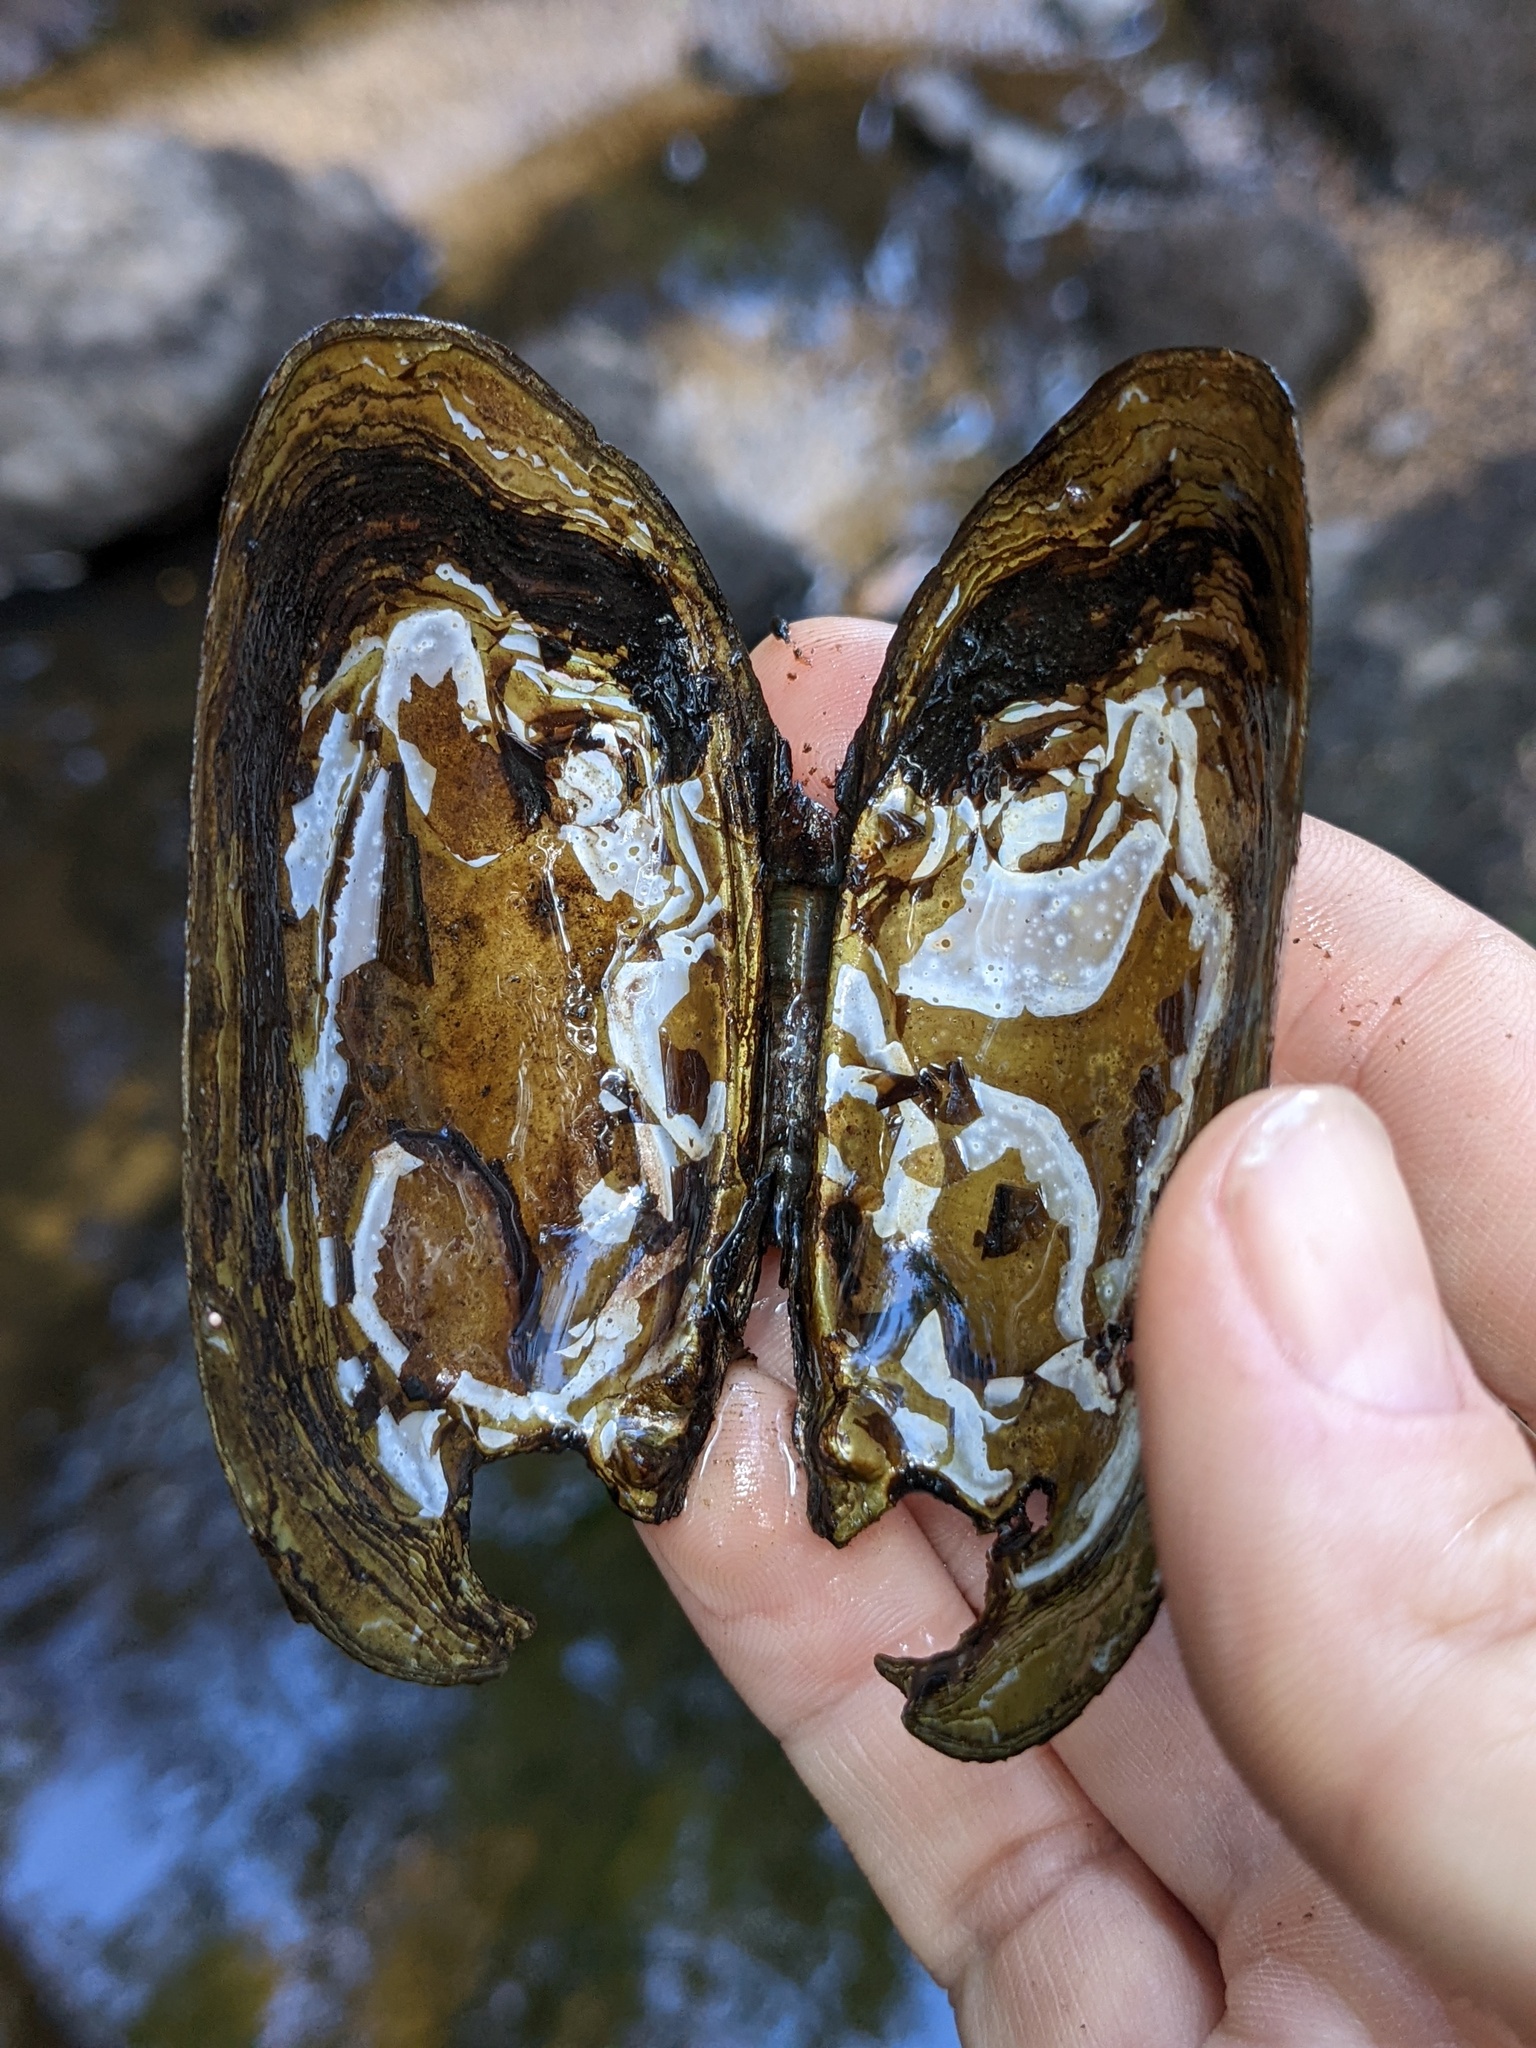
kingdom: Animalia
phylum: Mollusca
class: Bivalvia
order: Unionida
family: Unionidae
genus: Elliptio
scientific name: Elliptio complanata
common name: Eastern elliptio
